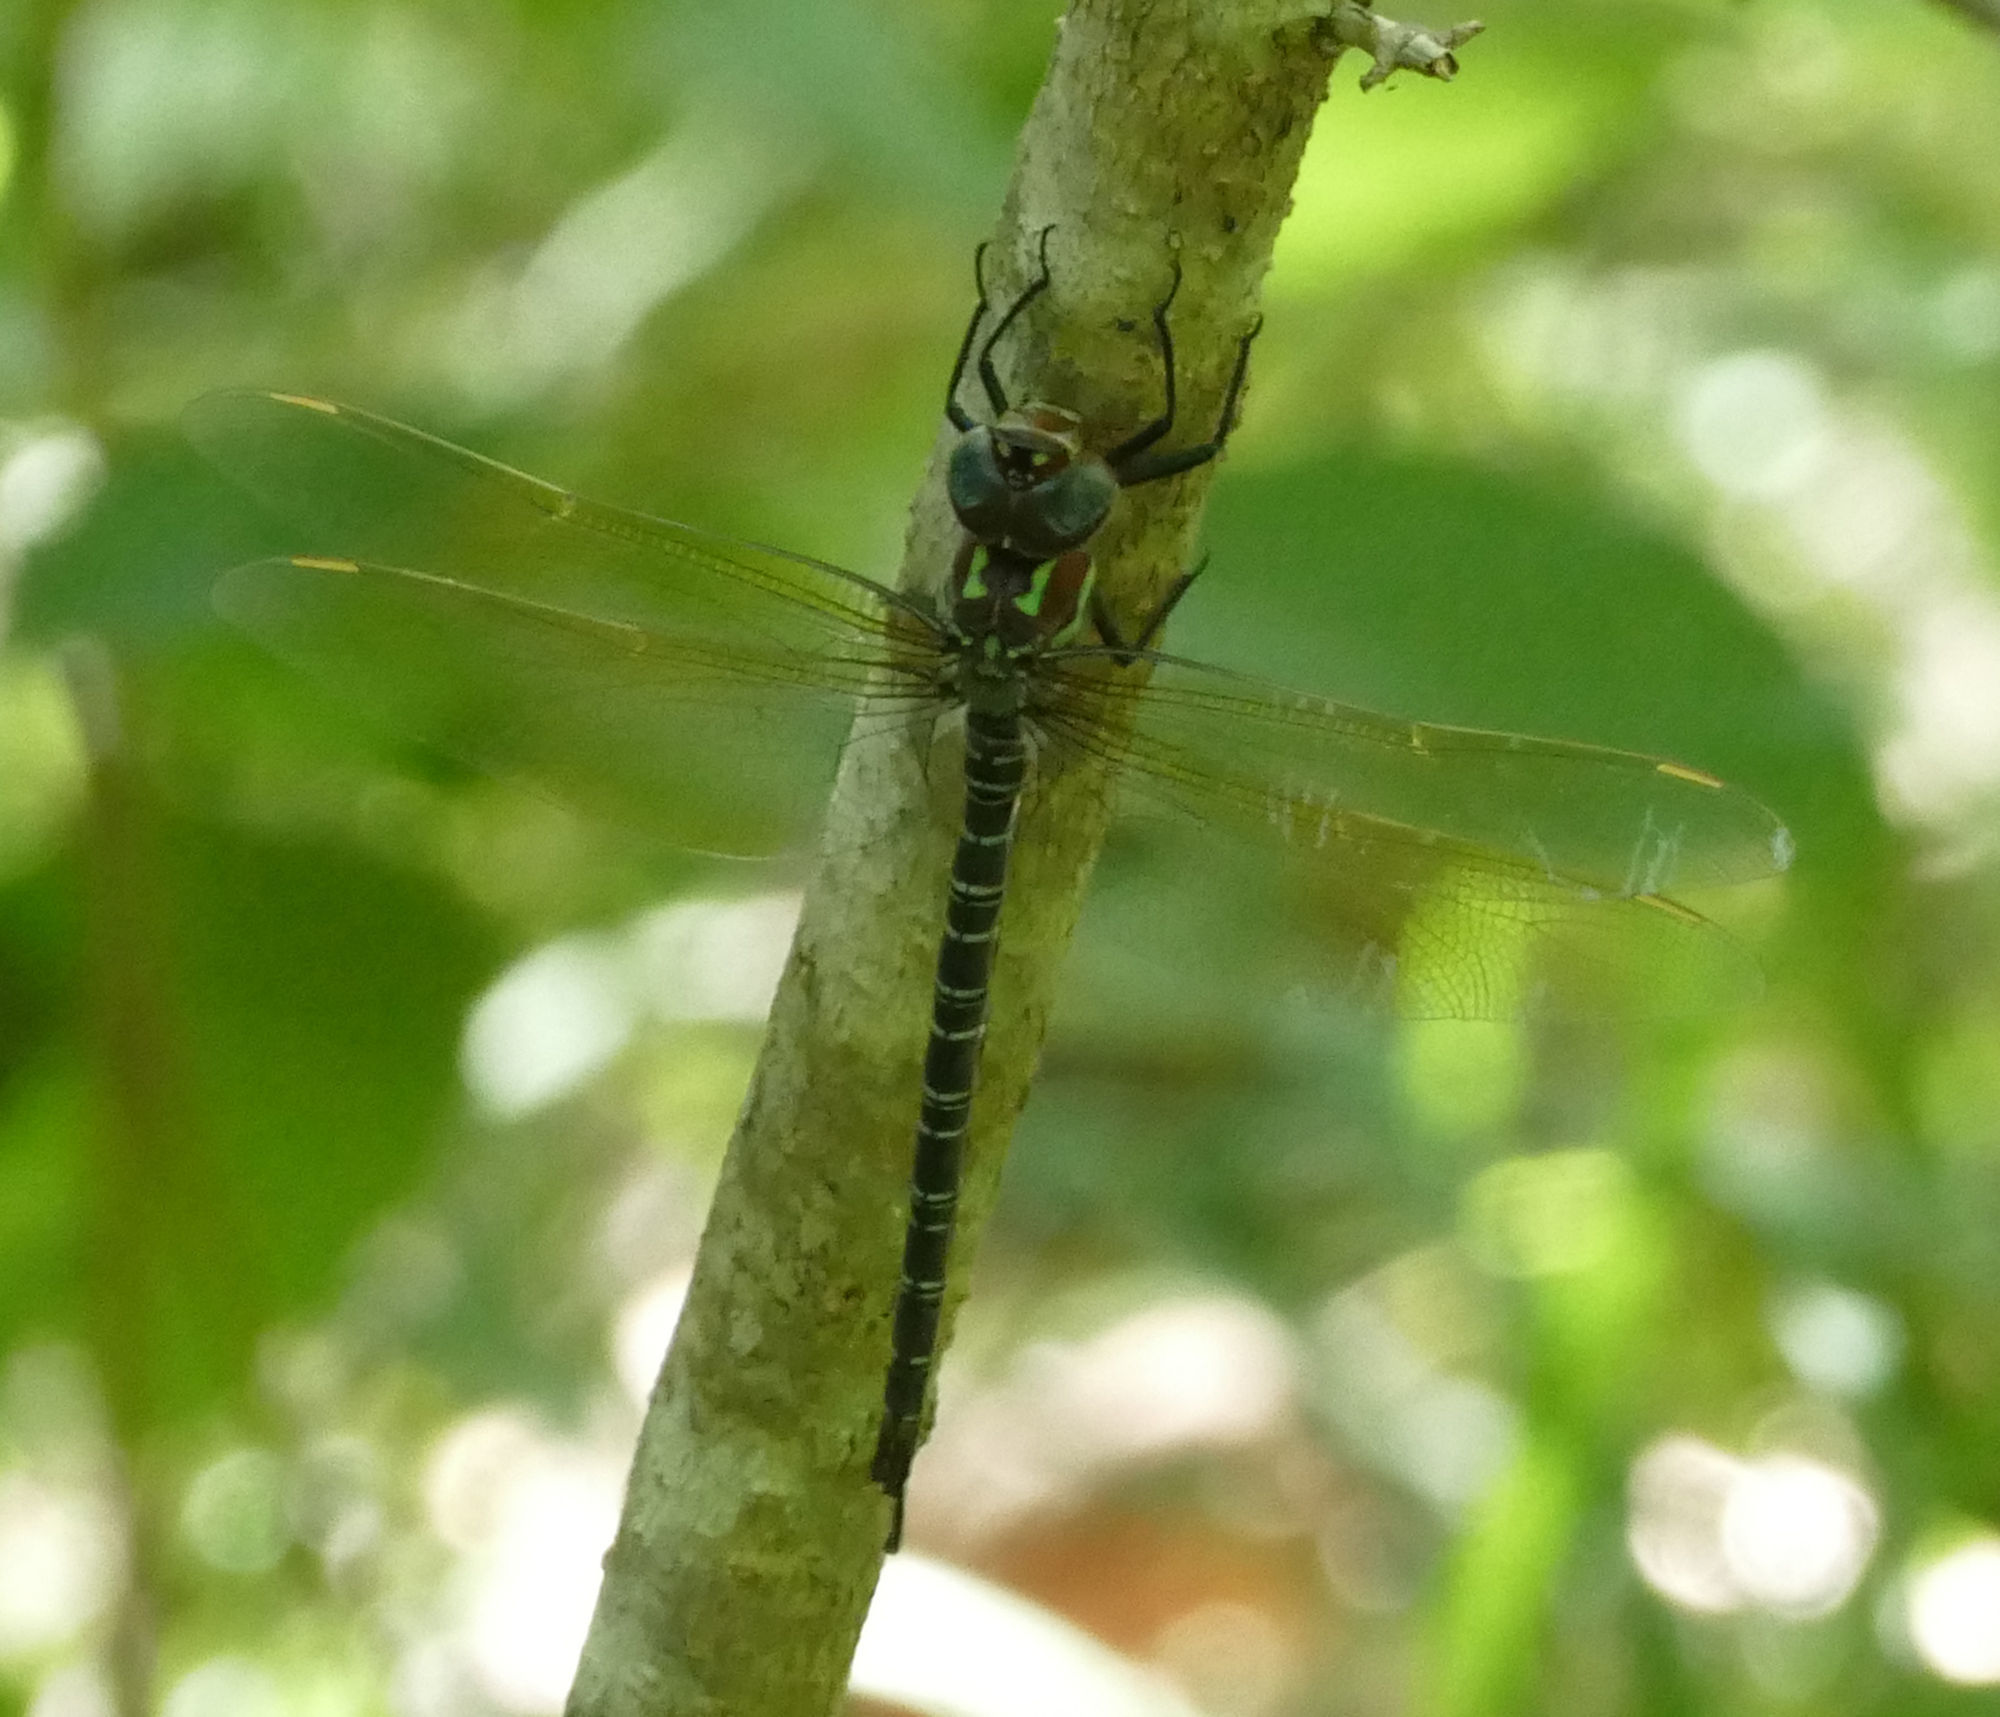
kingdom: Animalia
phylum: Arthropoda
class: Insecta
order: Odonata
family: Aeshnidae
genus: Epiaeschna
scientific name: Epiaeschna heros
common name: Swamp darner
